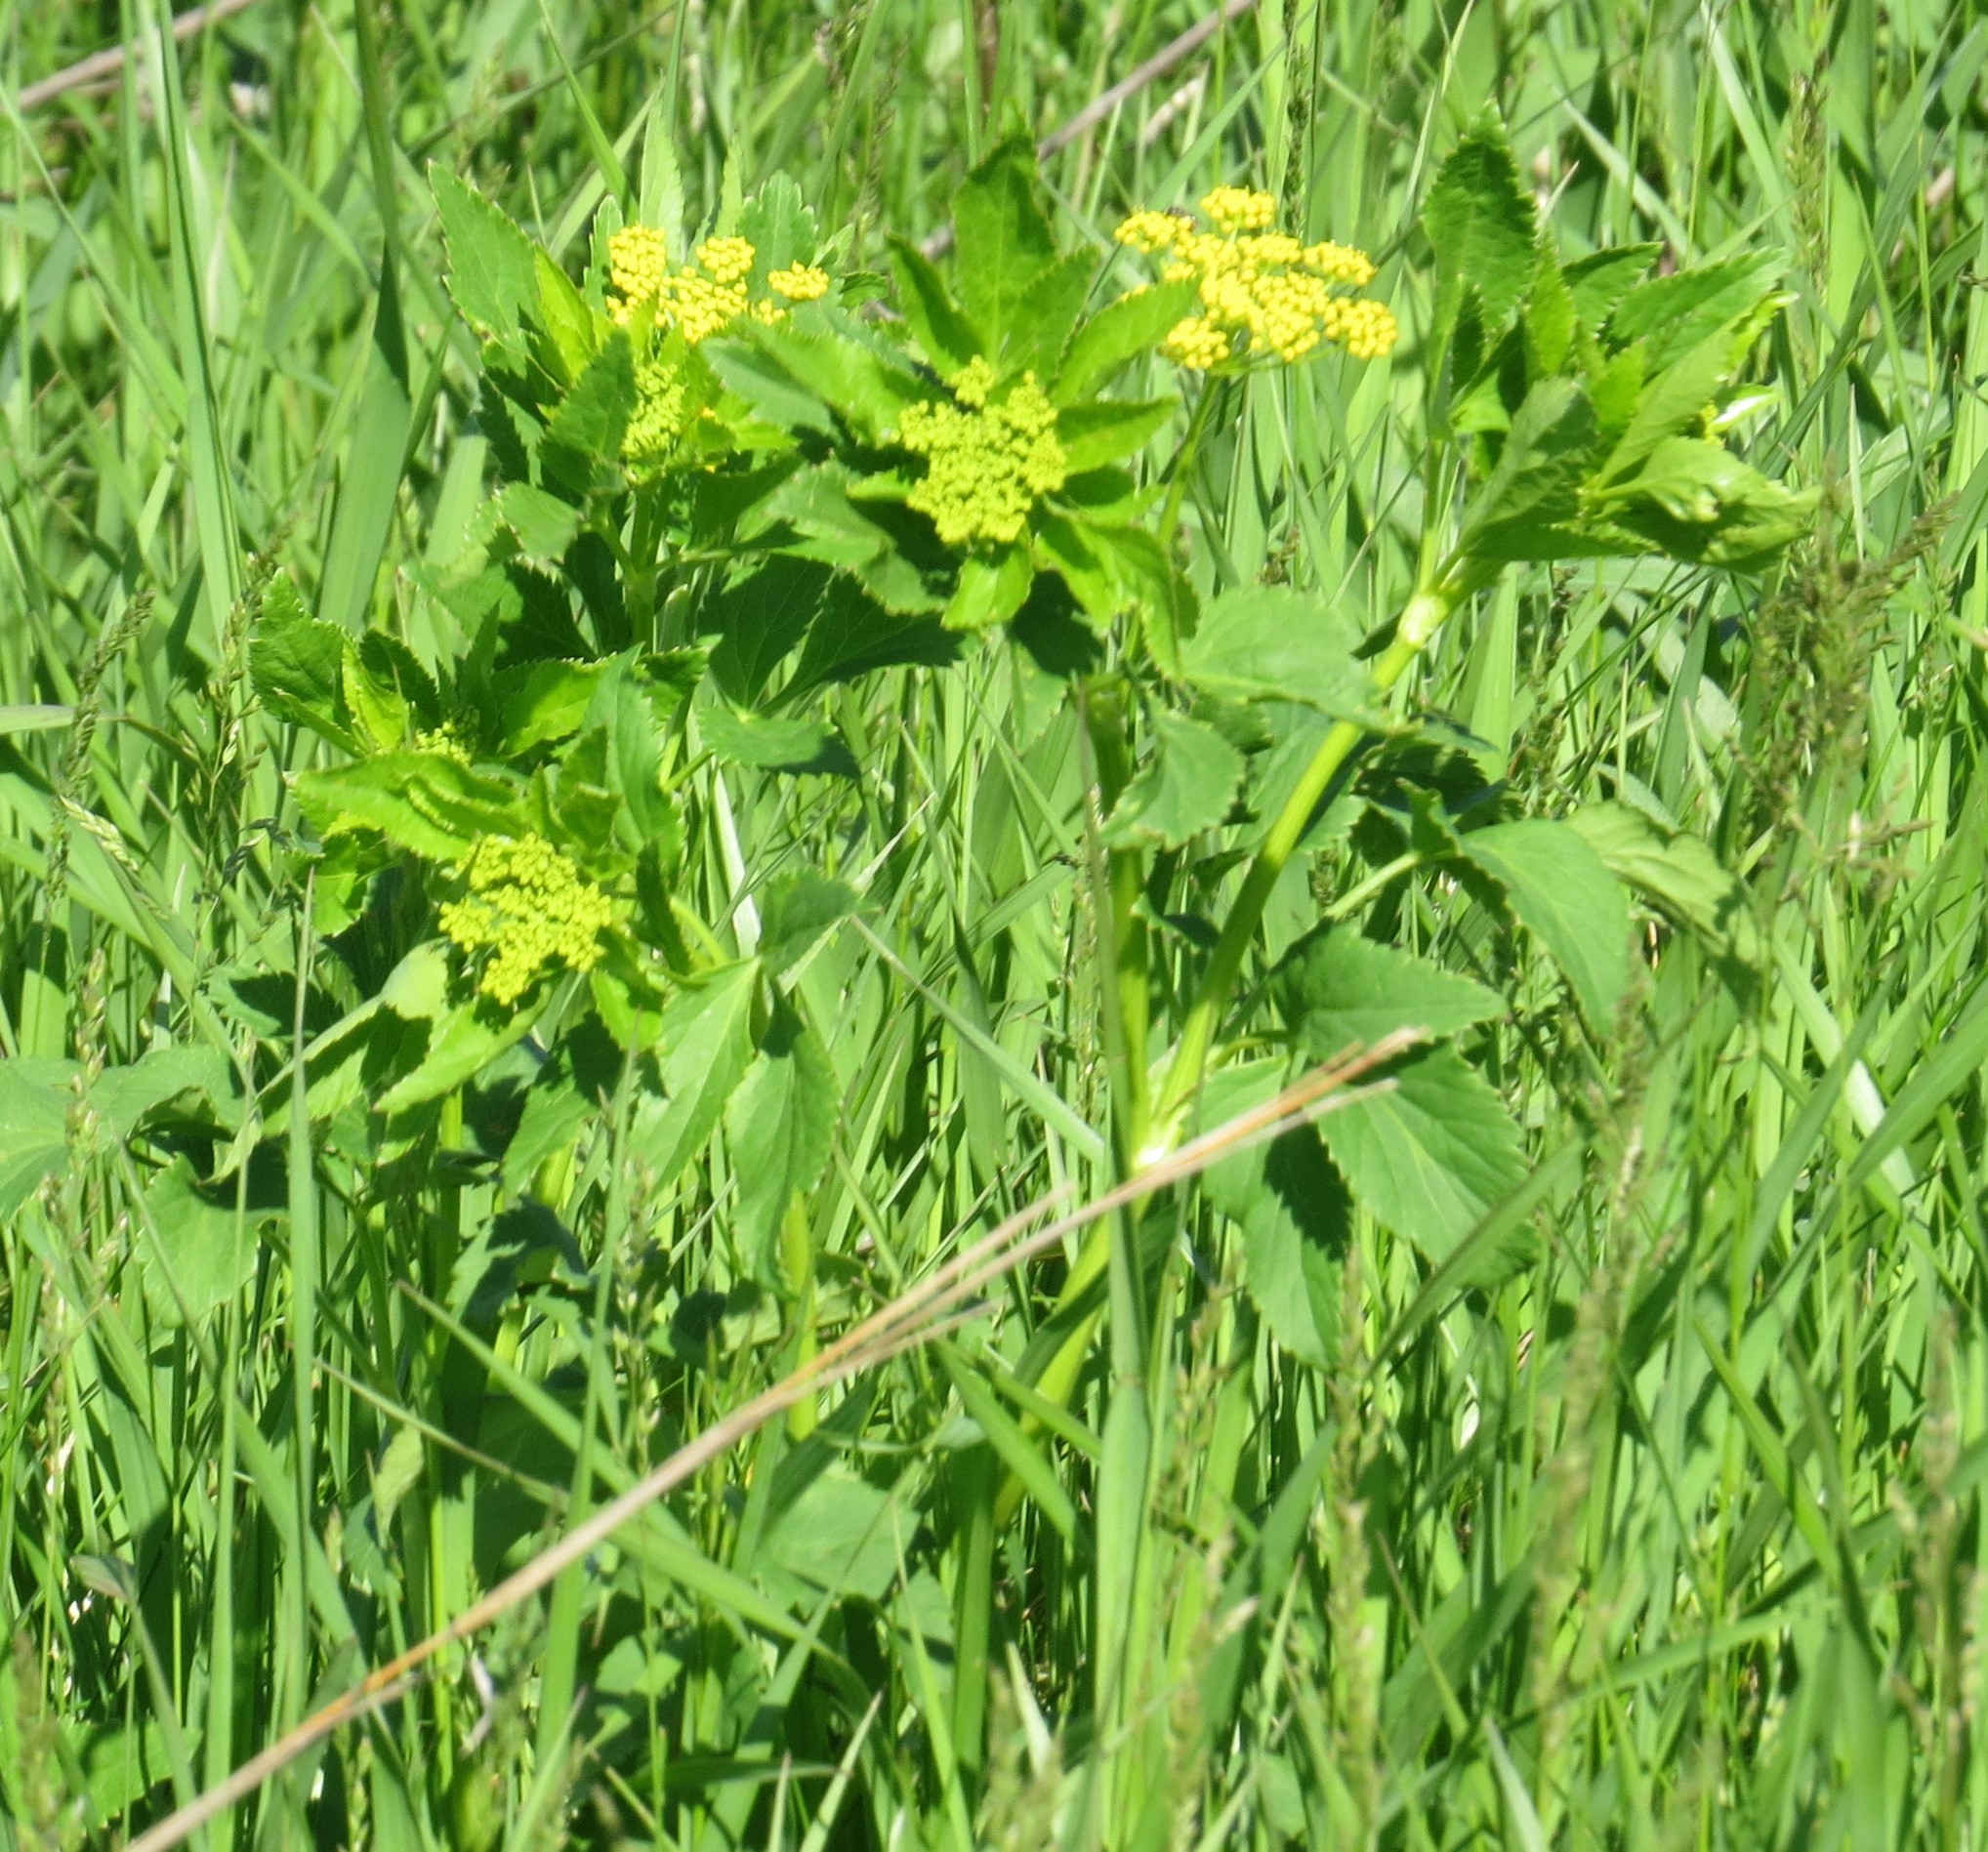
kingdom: Plantae
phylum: Tracheophyta
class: Magnoliopsida
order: Apiales
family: Apiaceae
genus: Zizia
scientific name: Zizia aurea
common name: Golden alexanders
